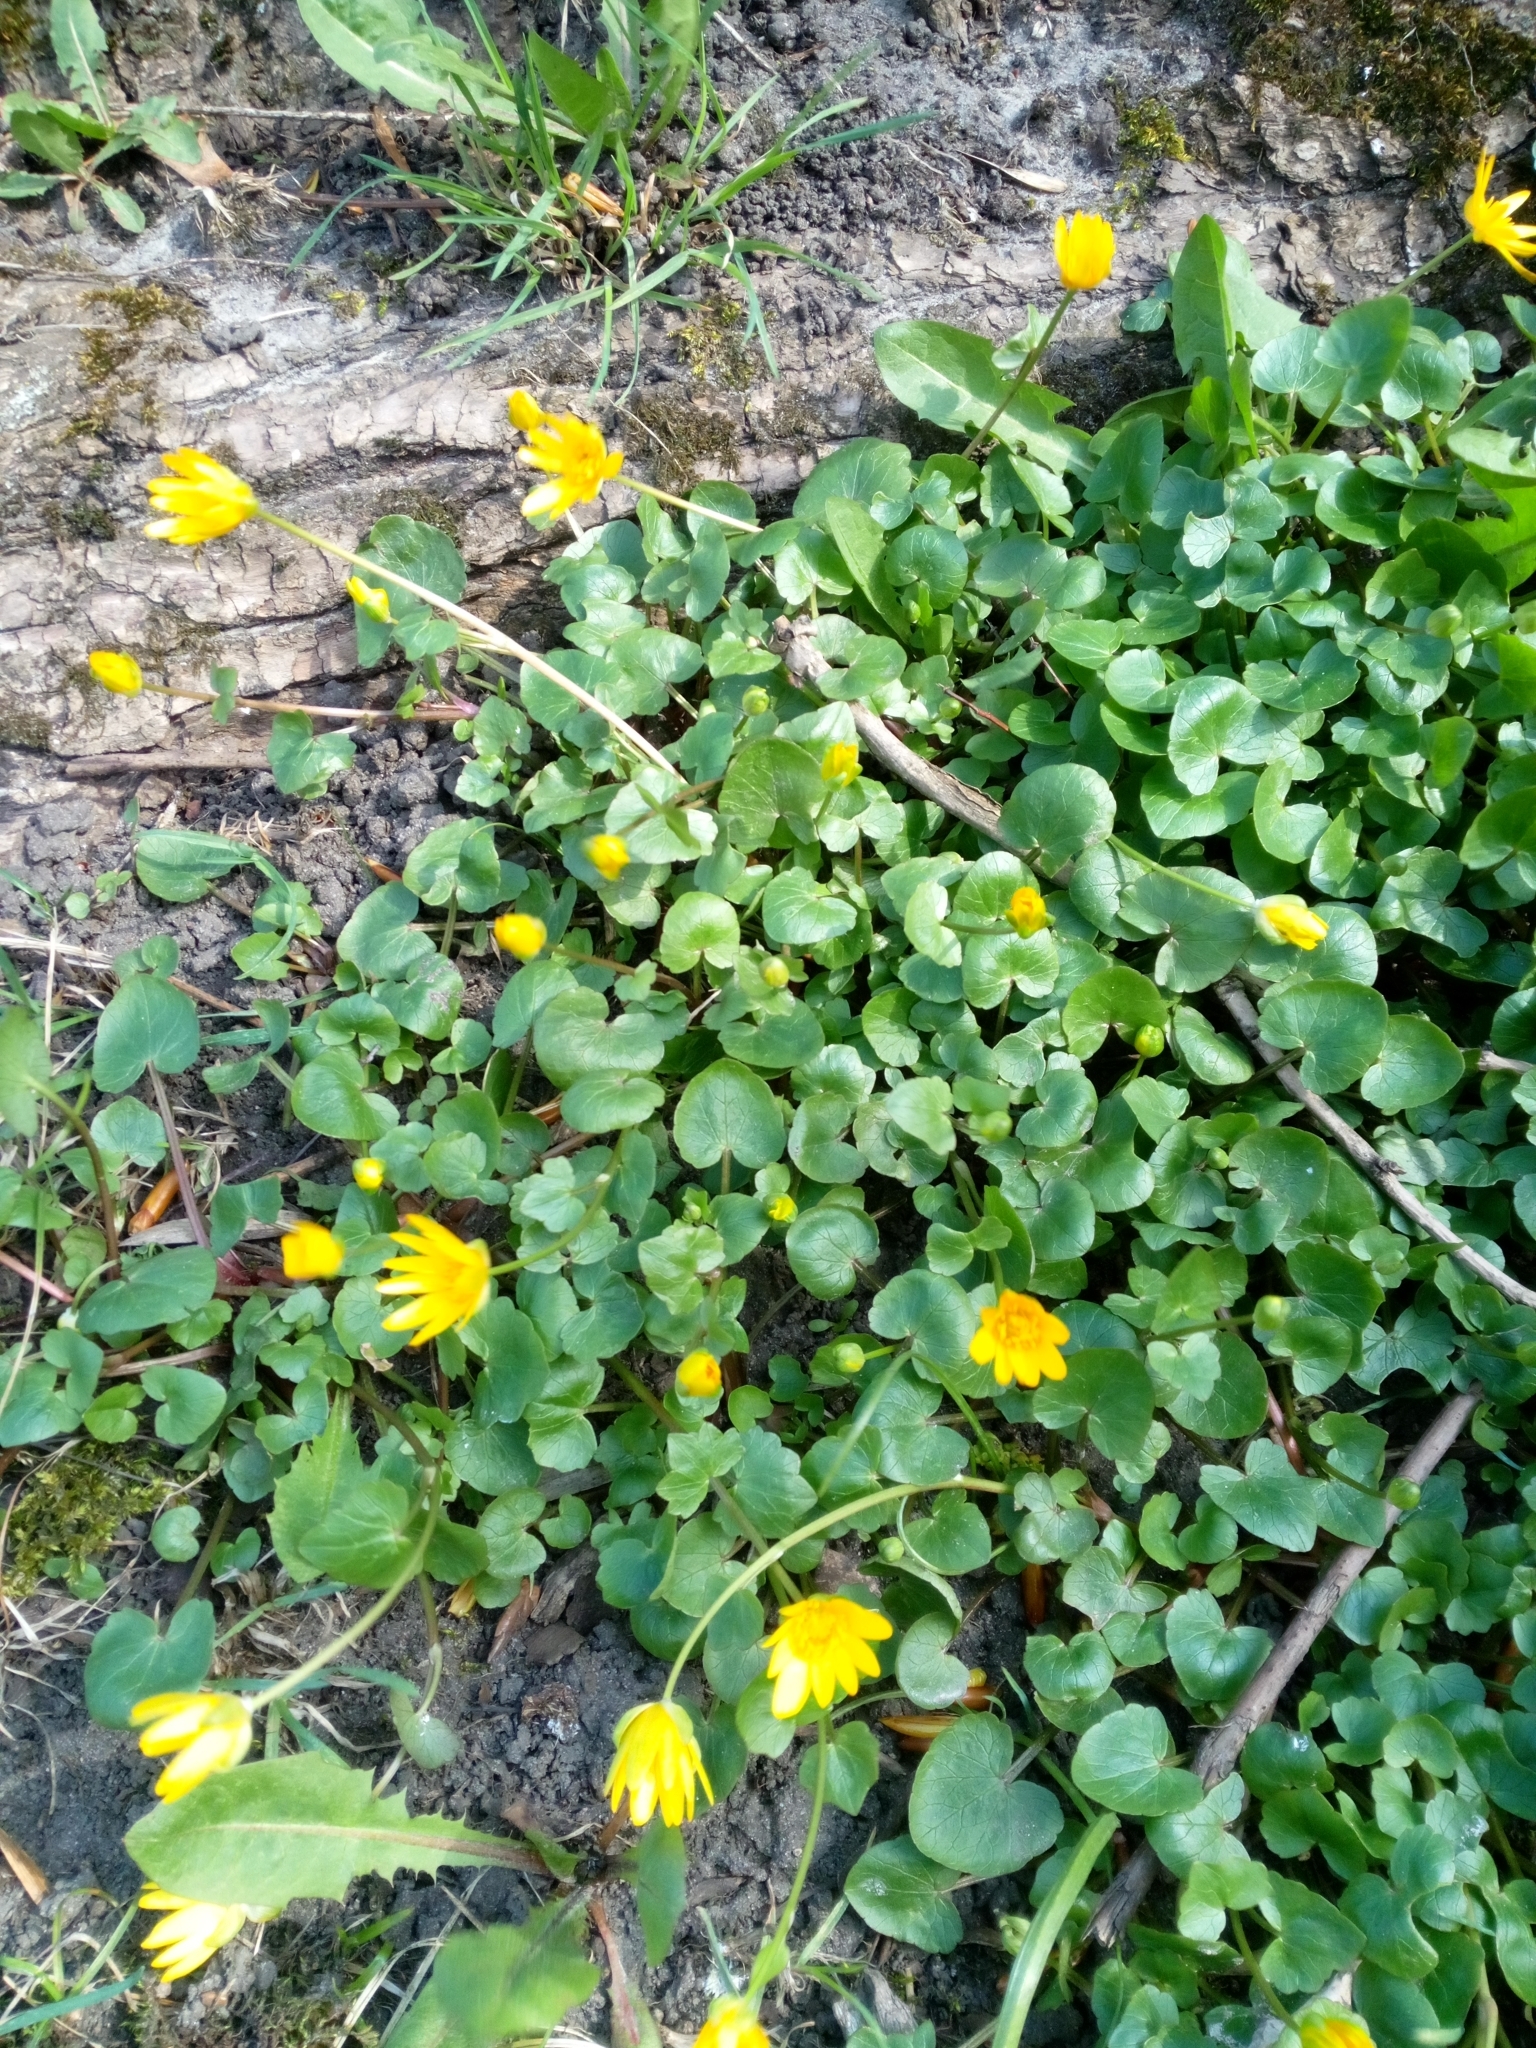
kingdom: Plantae
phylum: Tracheophyta
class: Magnoliopsida
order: Ranunculales
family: Ranunculaceae
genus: Ficaria
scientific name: Ficaria verna
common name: Lesser celandine
